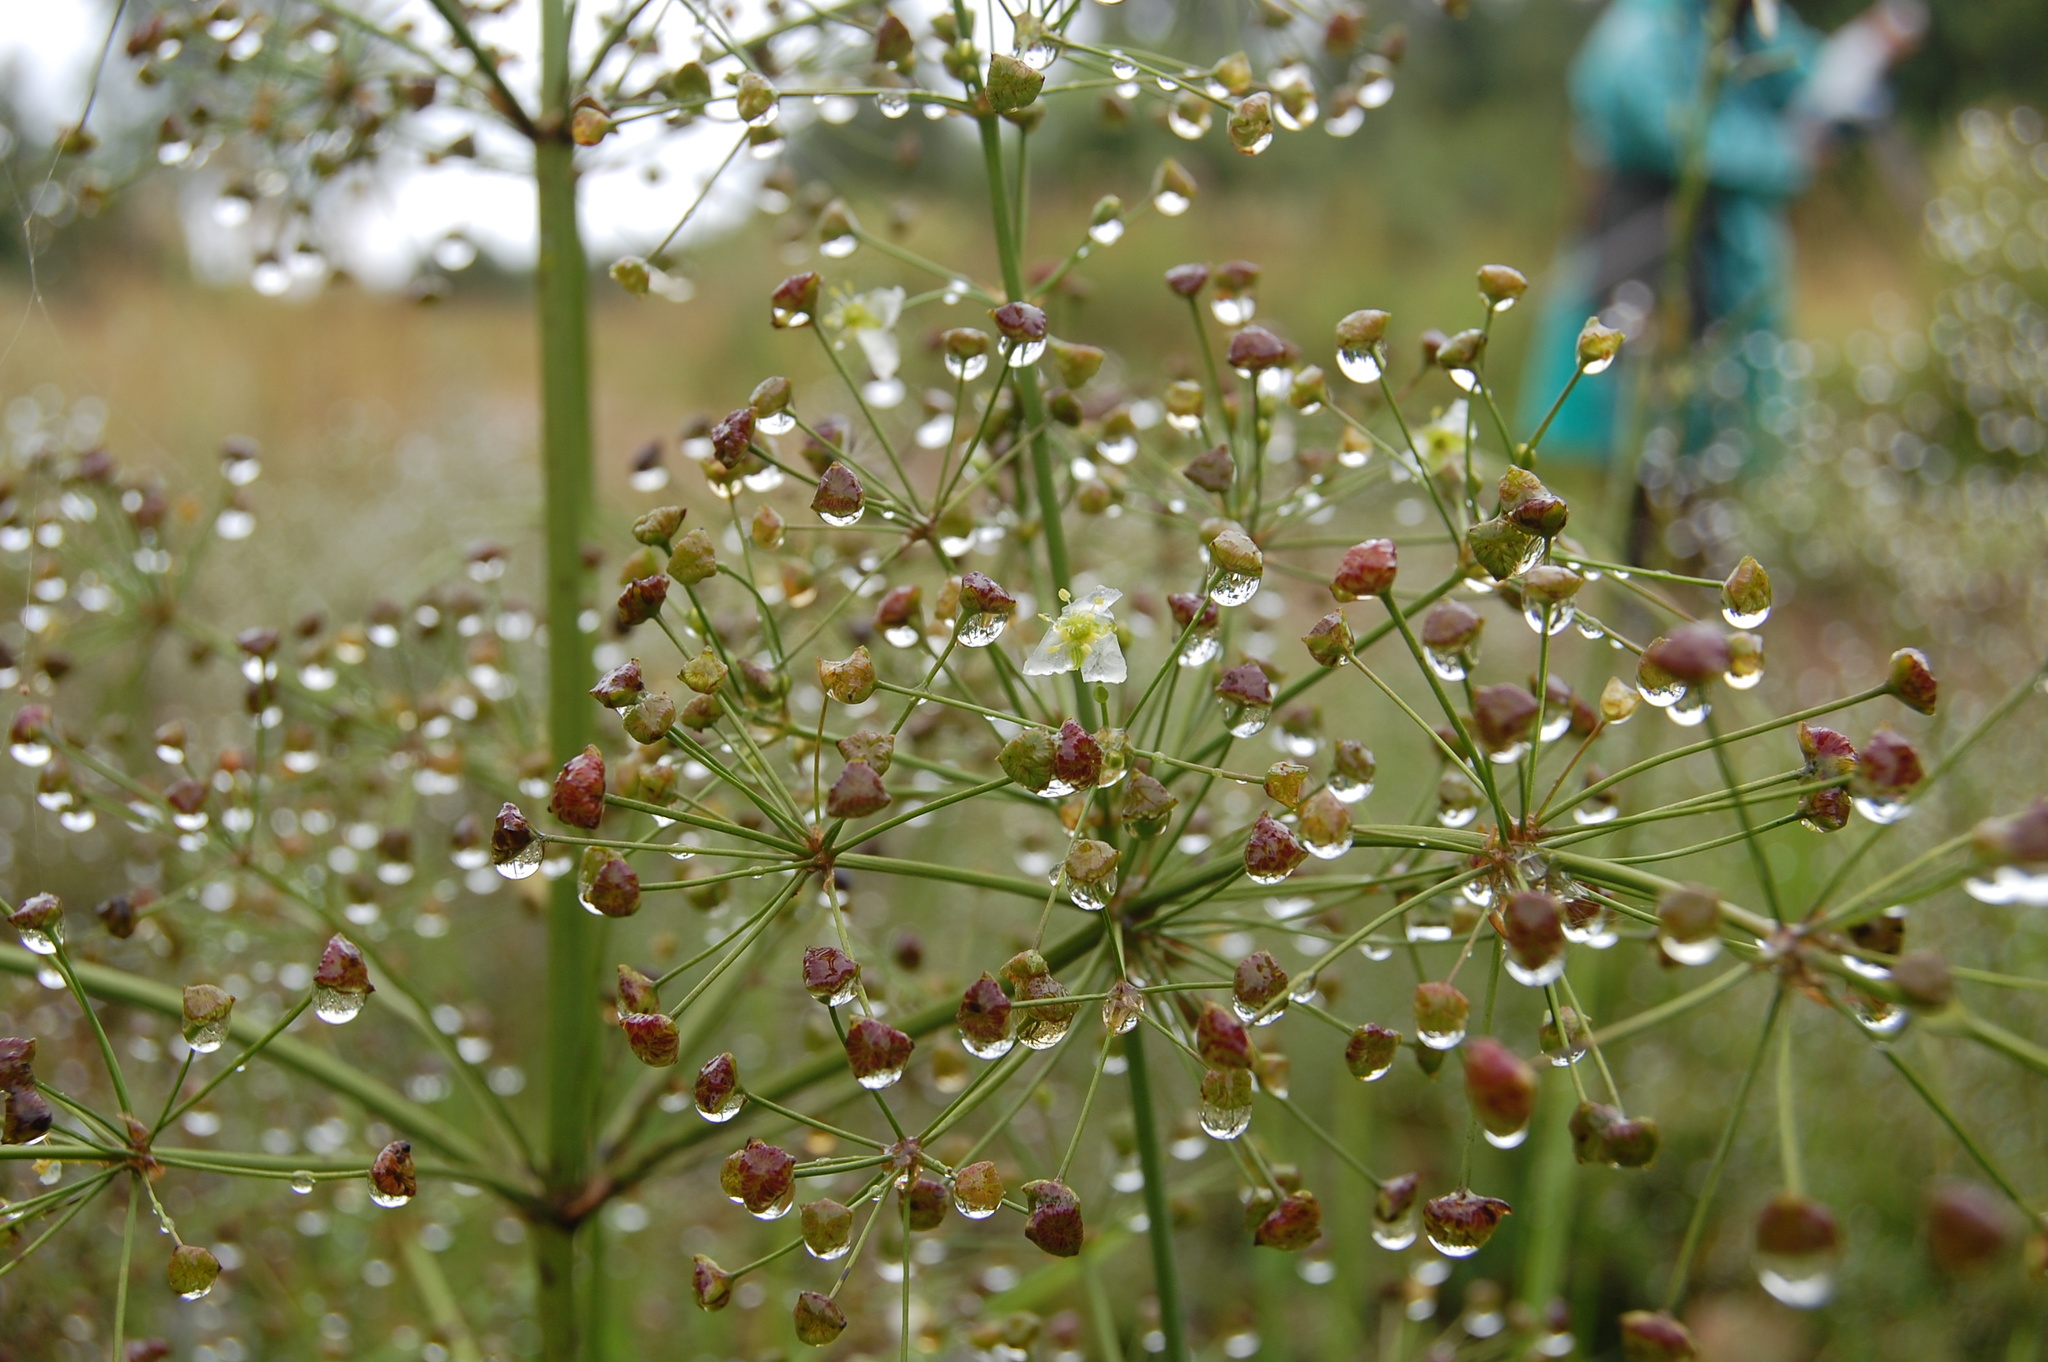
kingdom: Plantae
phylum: Tracheophyta
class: Liliopsida
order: Alismatales
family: Alismataceae
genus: Alisma
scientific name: Alisma plantago-aquatica
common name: Water-plantain
